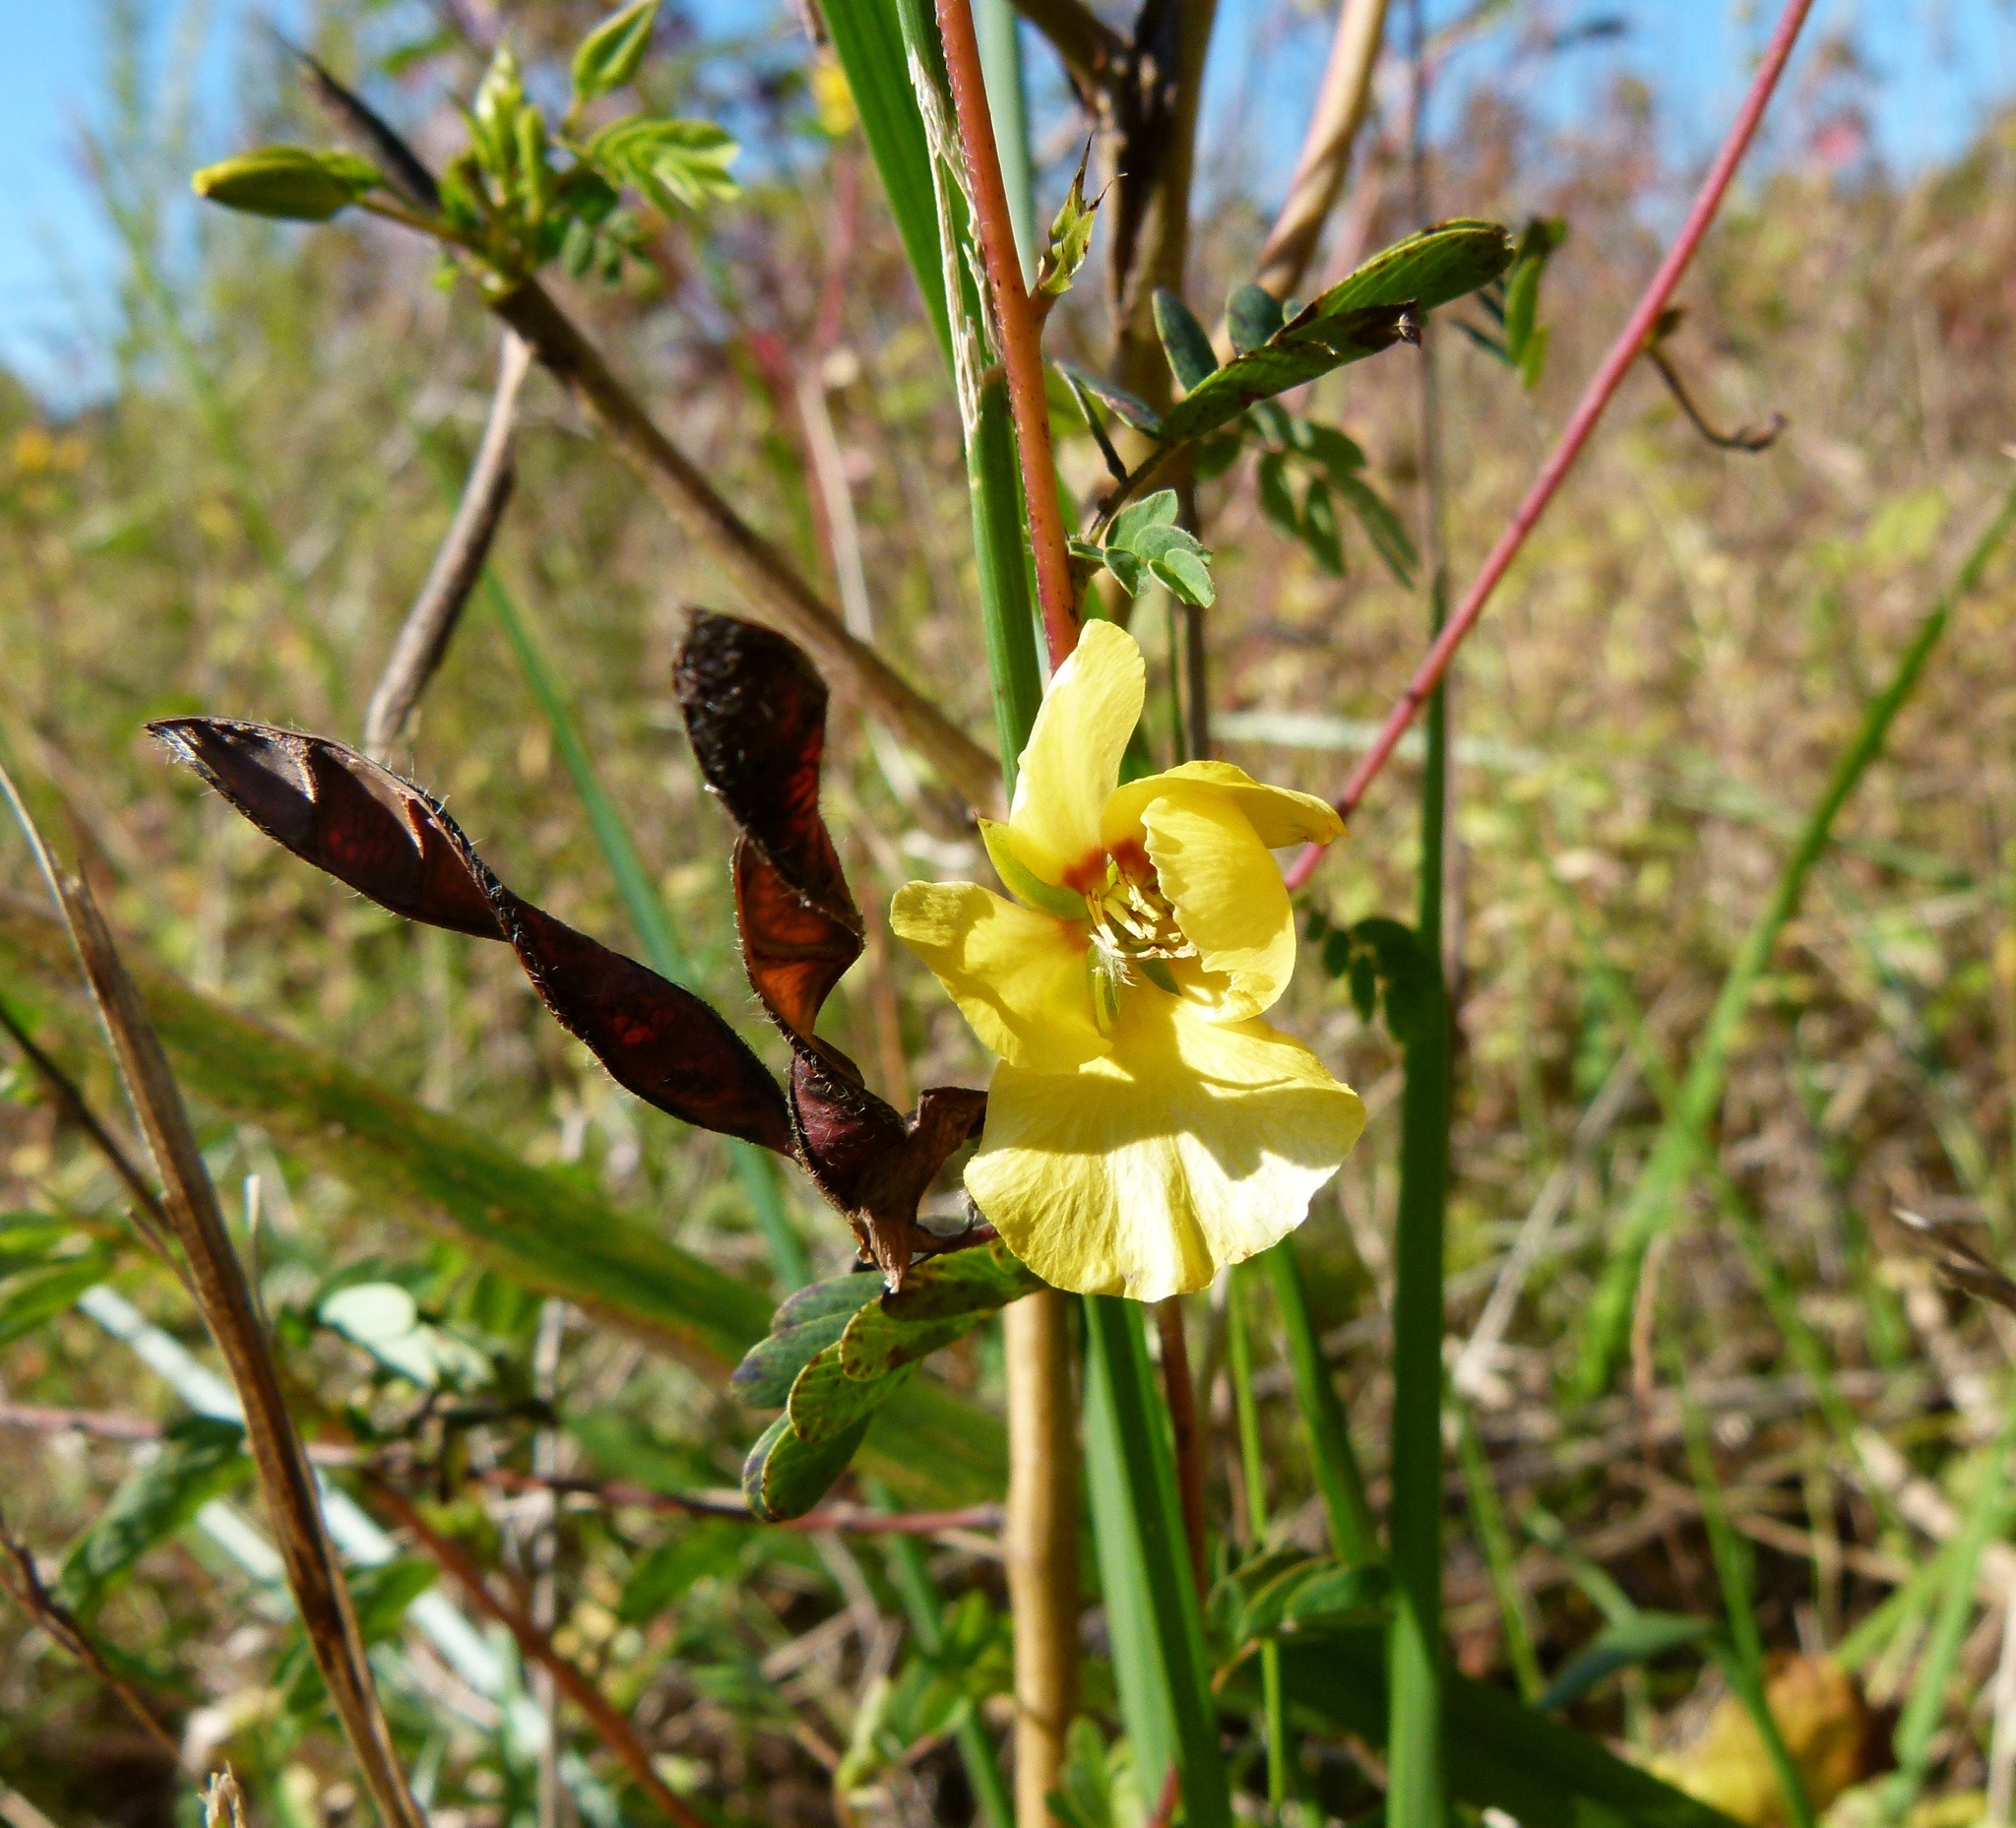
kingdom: Plantae
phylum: Tracheophyta
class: Magnoliopsida
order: Fabales
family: Fabaceae
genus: Chamaecrista
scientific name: Chamaecrista fasciculata
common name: Golden cassia
